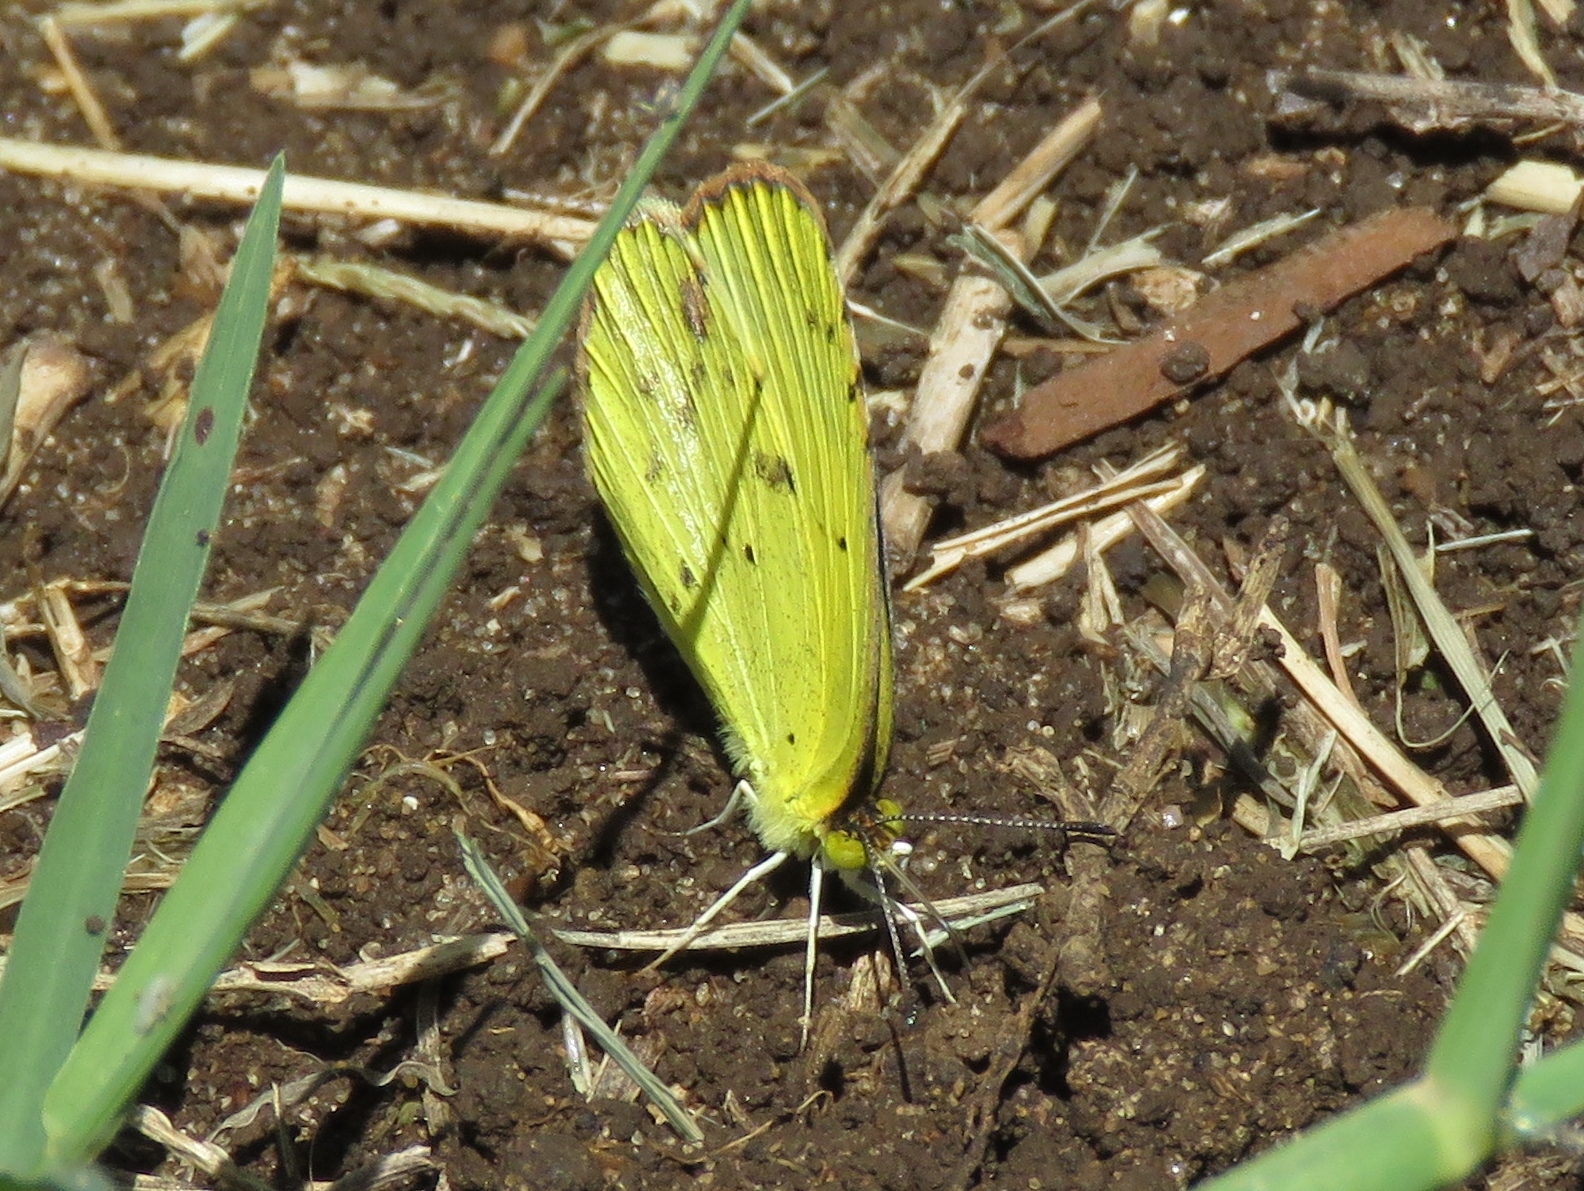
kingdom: Animalia
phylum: Arthropoda
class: Insecta
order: Lepidoptera
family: Pieridae
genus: Pyrisitia
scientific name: Pyrisitia lisa
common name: Little yellow
